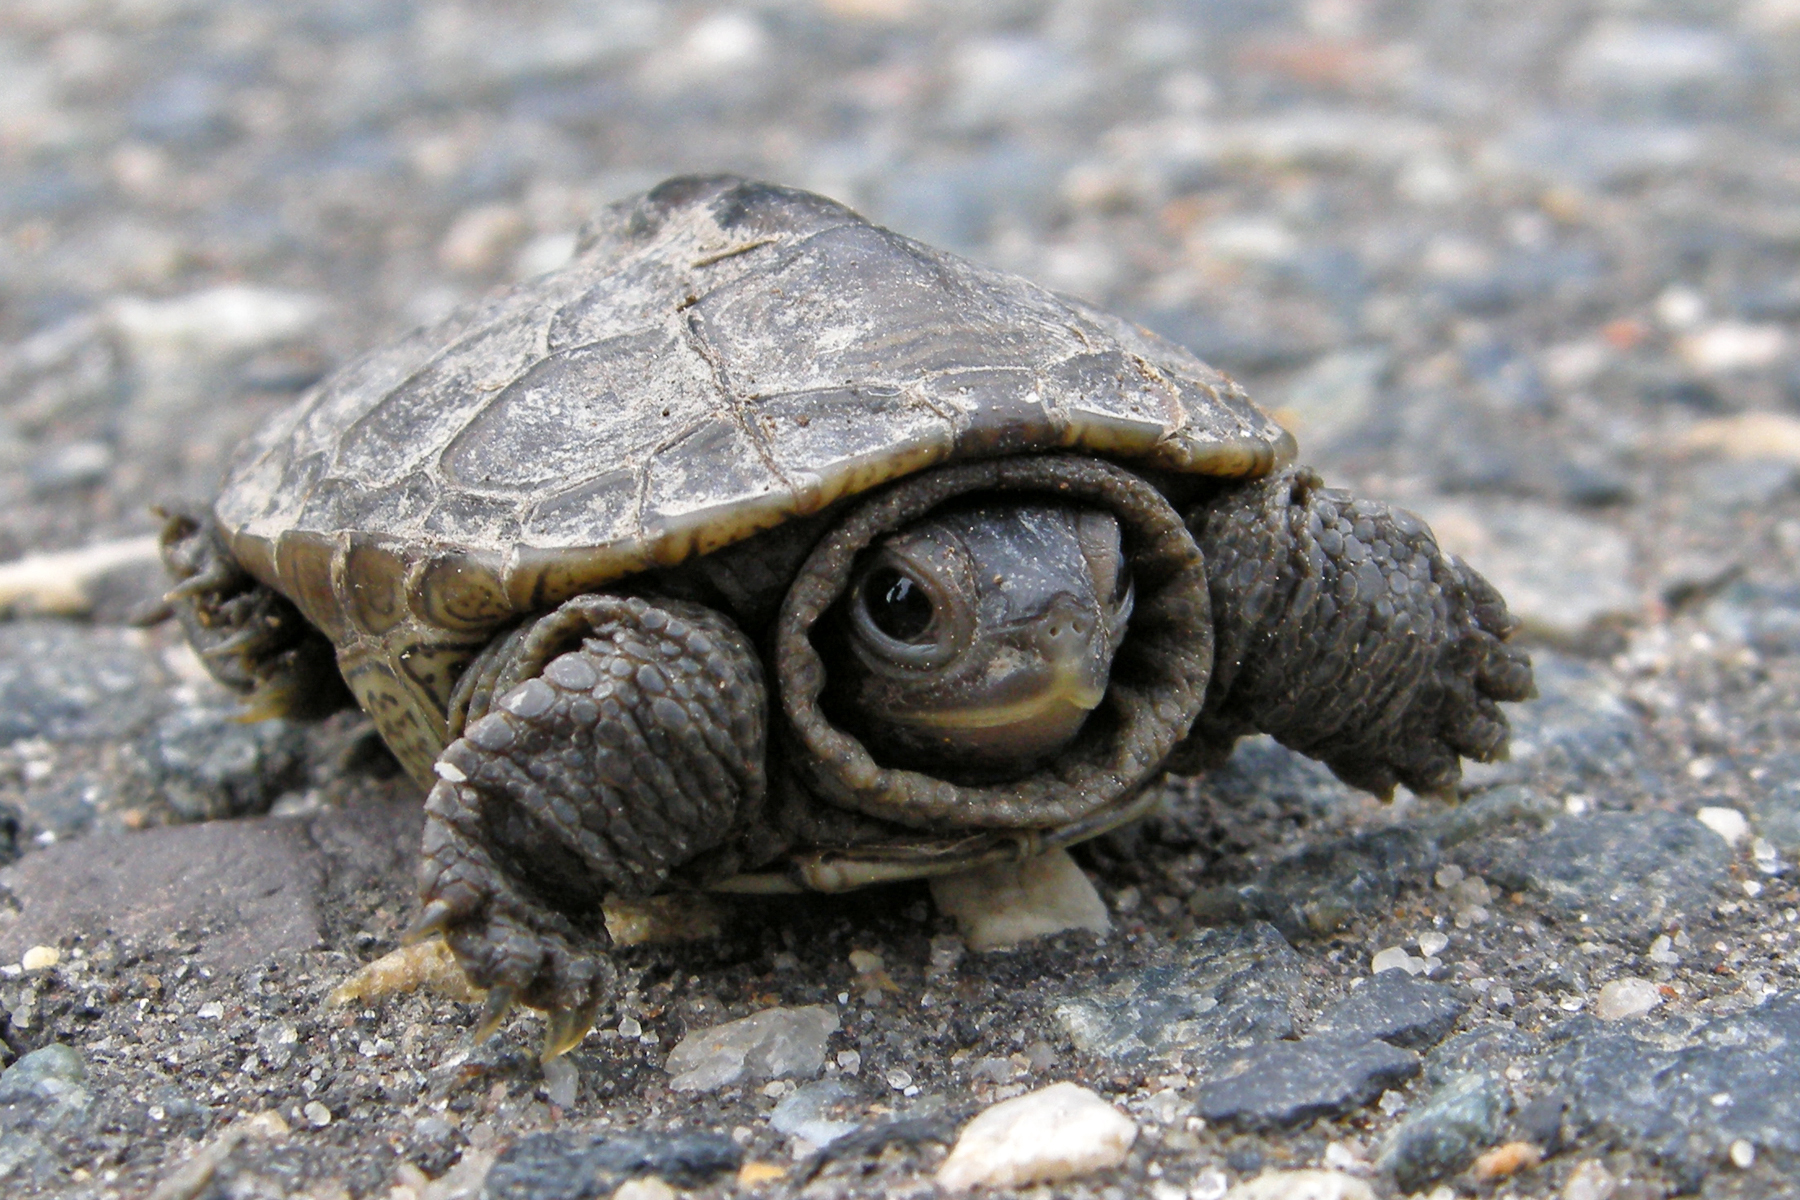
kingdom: Animalia
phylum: Chordata
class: Testudines
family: Emydidae
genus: Malaclemys
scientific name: Malaclemys terrapin
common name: Diamondback terrapin
